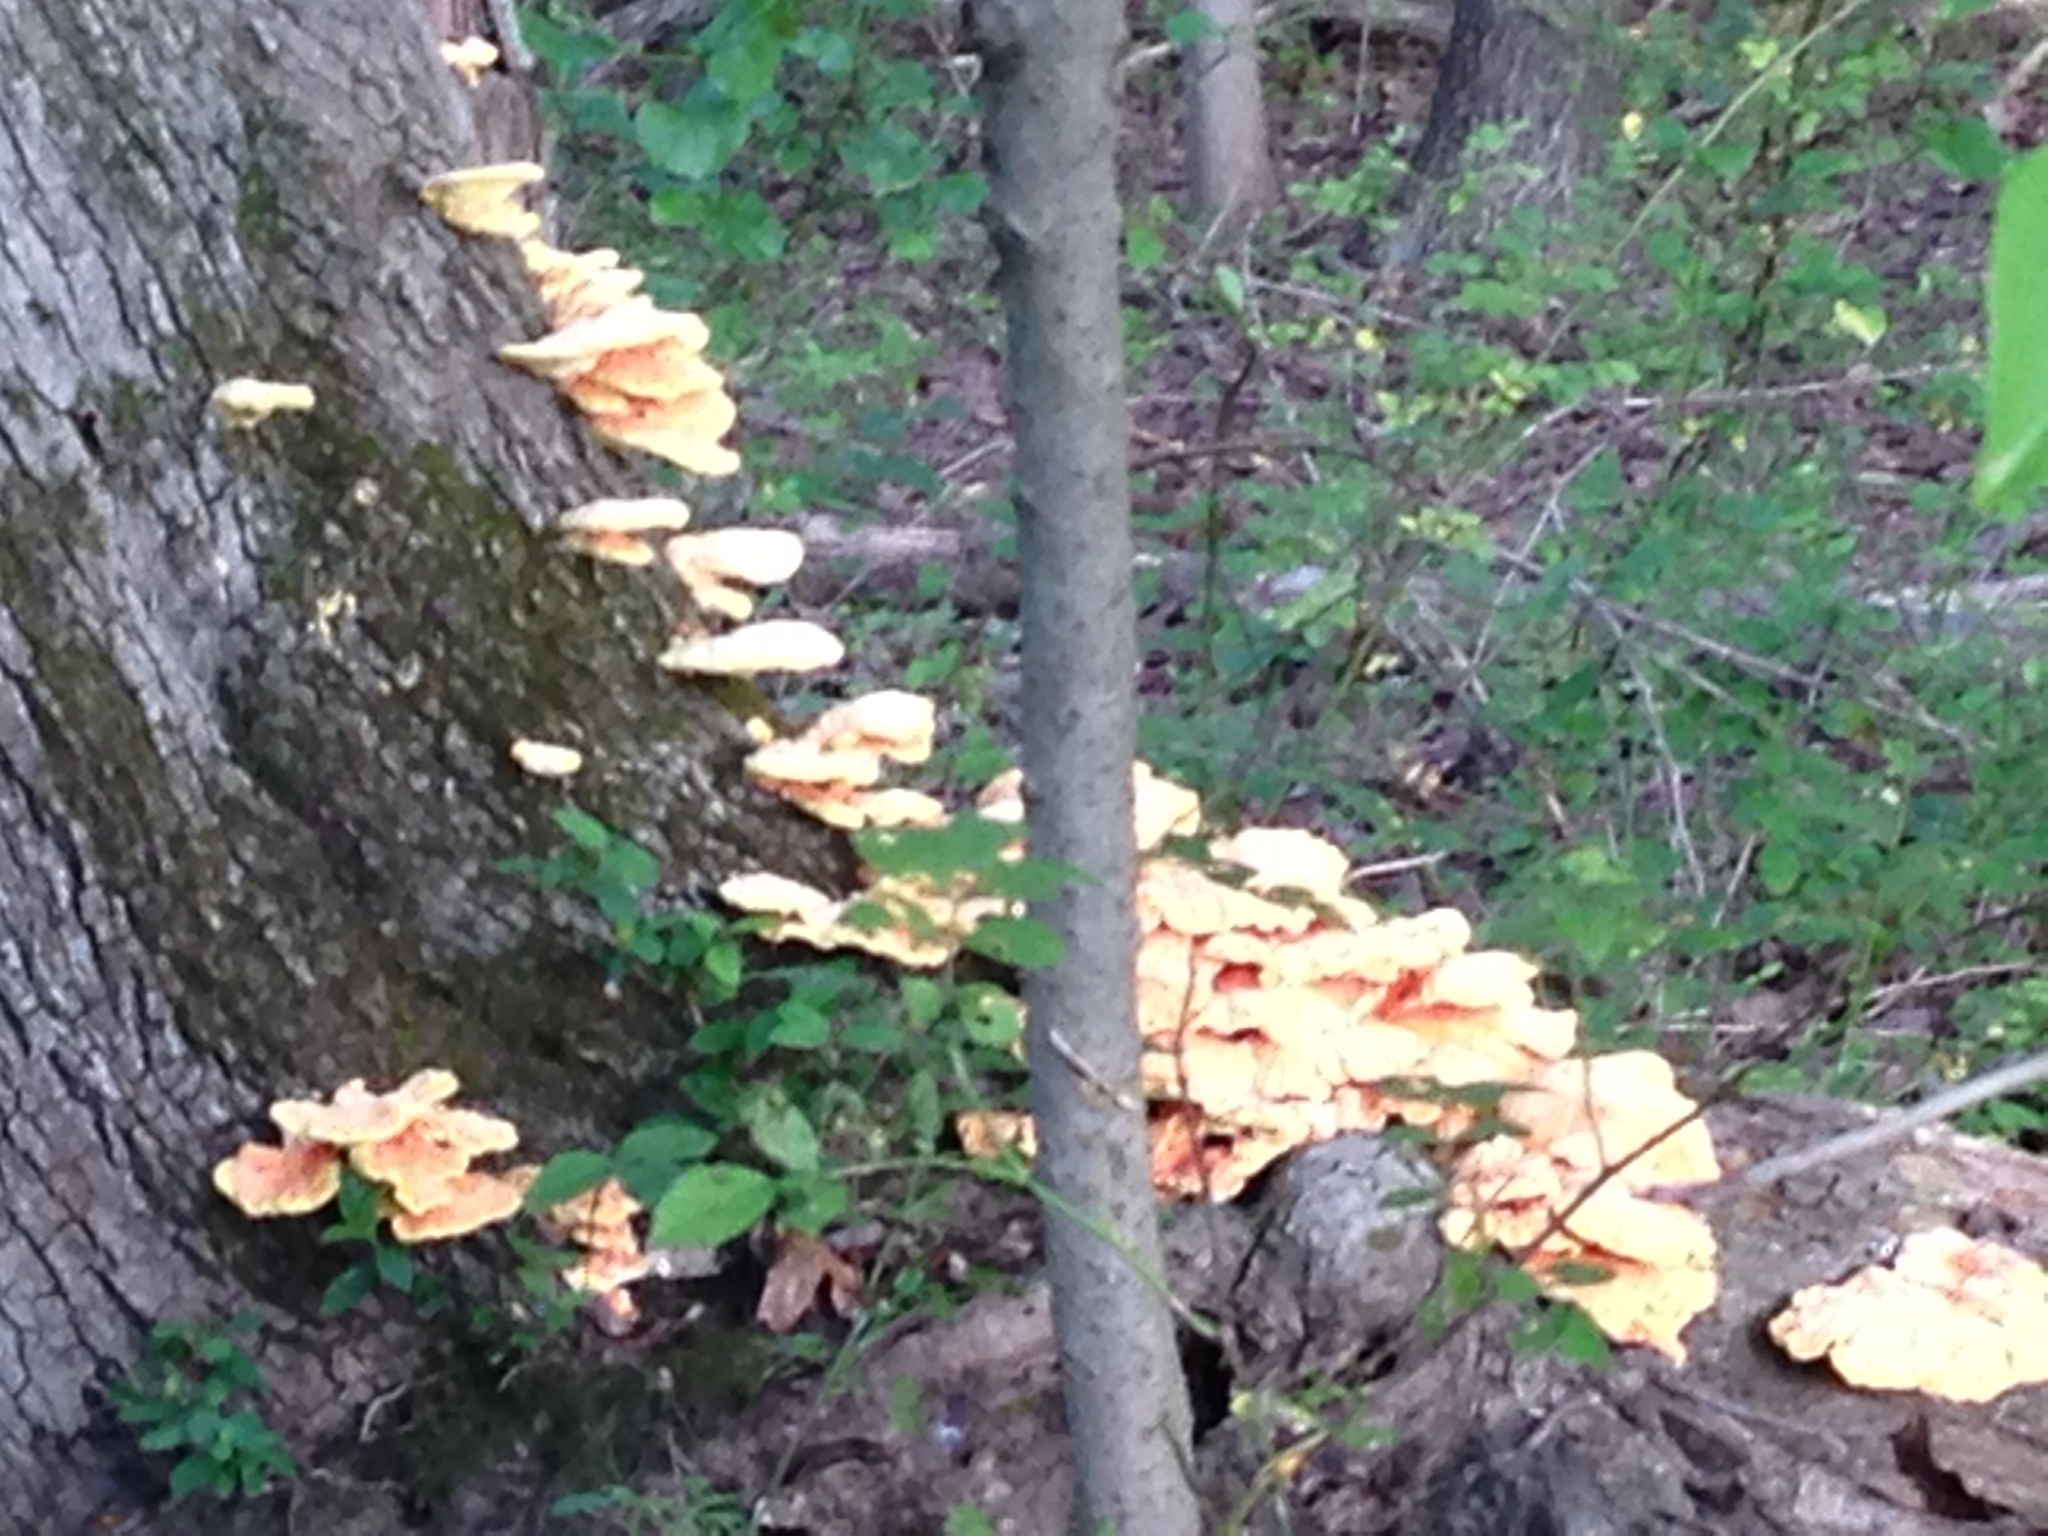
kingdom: Fungi
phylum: Basidiomycota
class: Agaricomycetes
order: Polyporales
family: Laetiporaceae
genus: Laetiporus
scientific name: Laetiporus sulphureus
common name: Chicken of the woods
